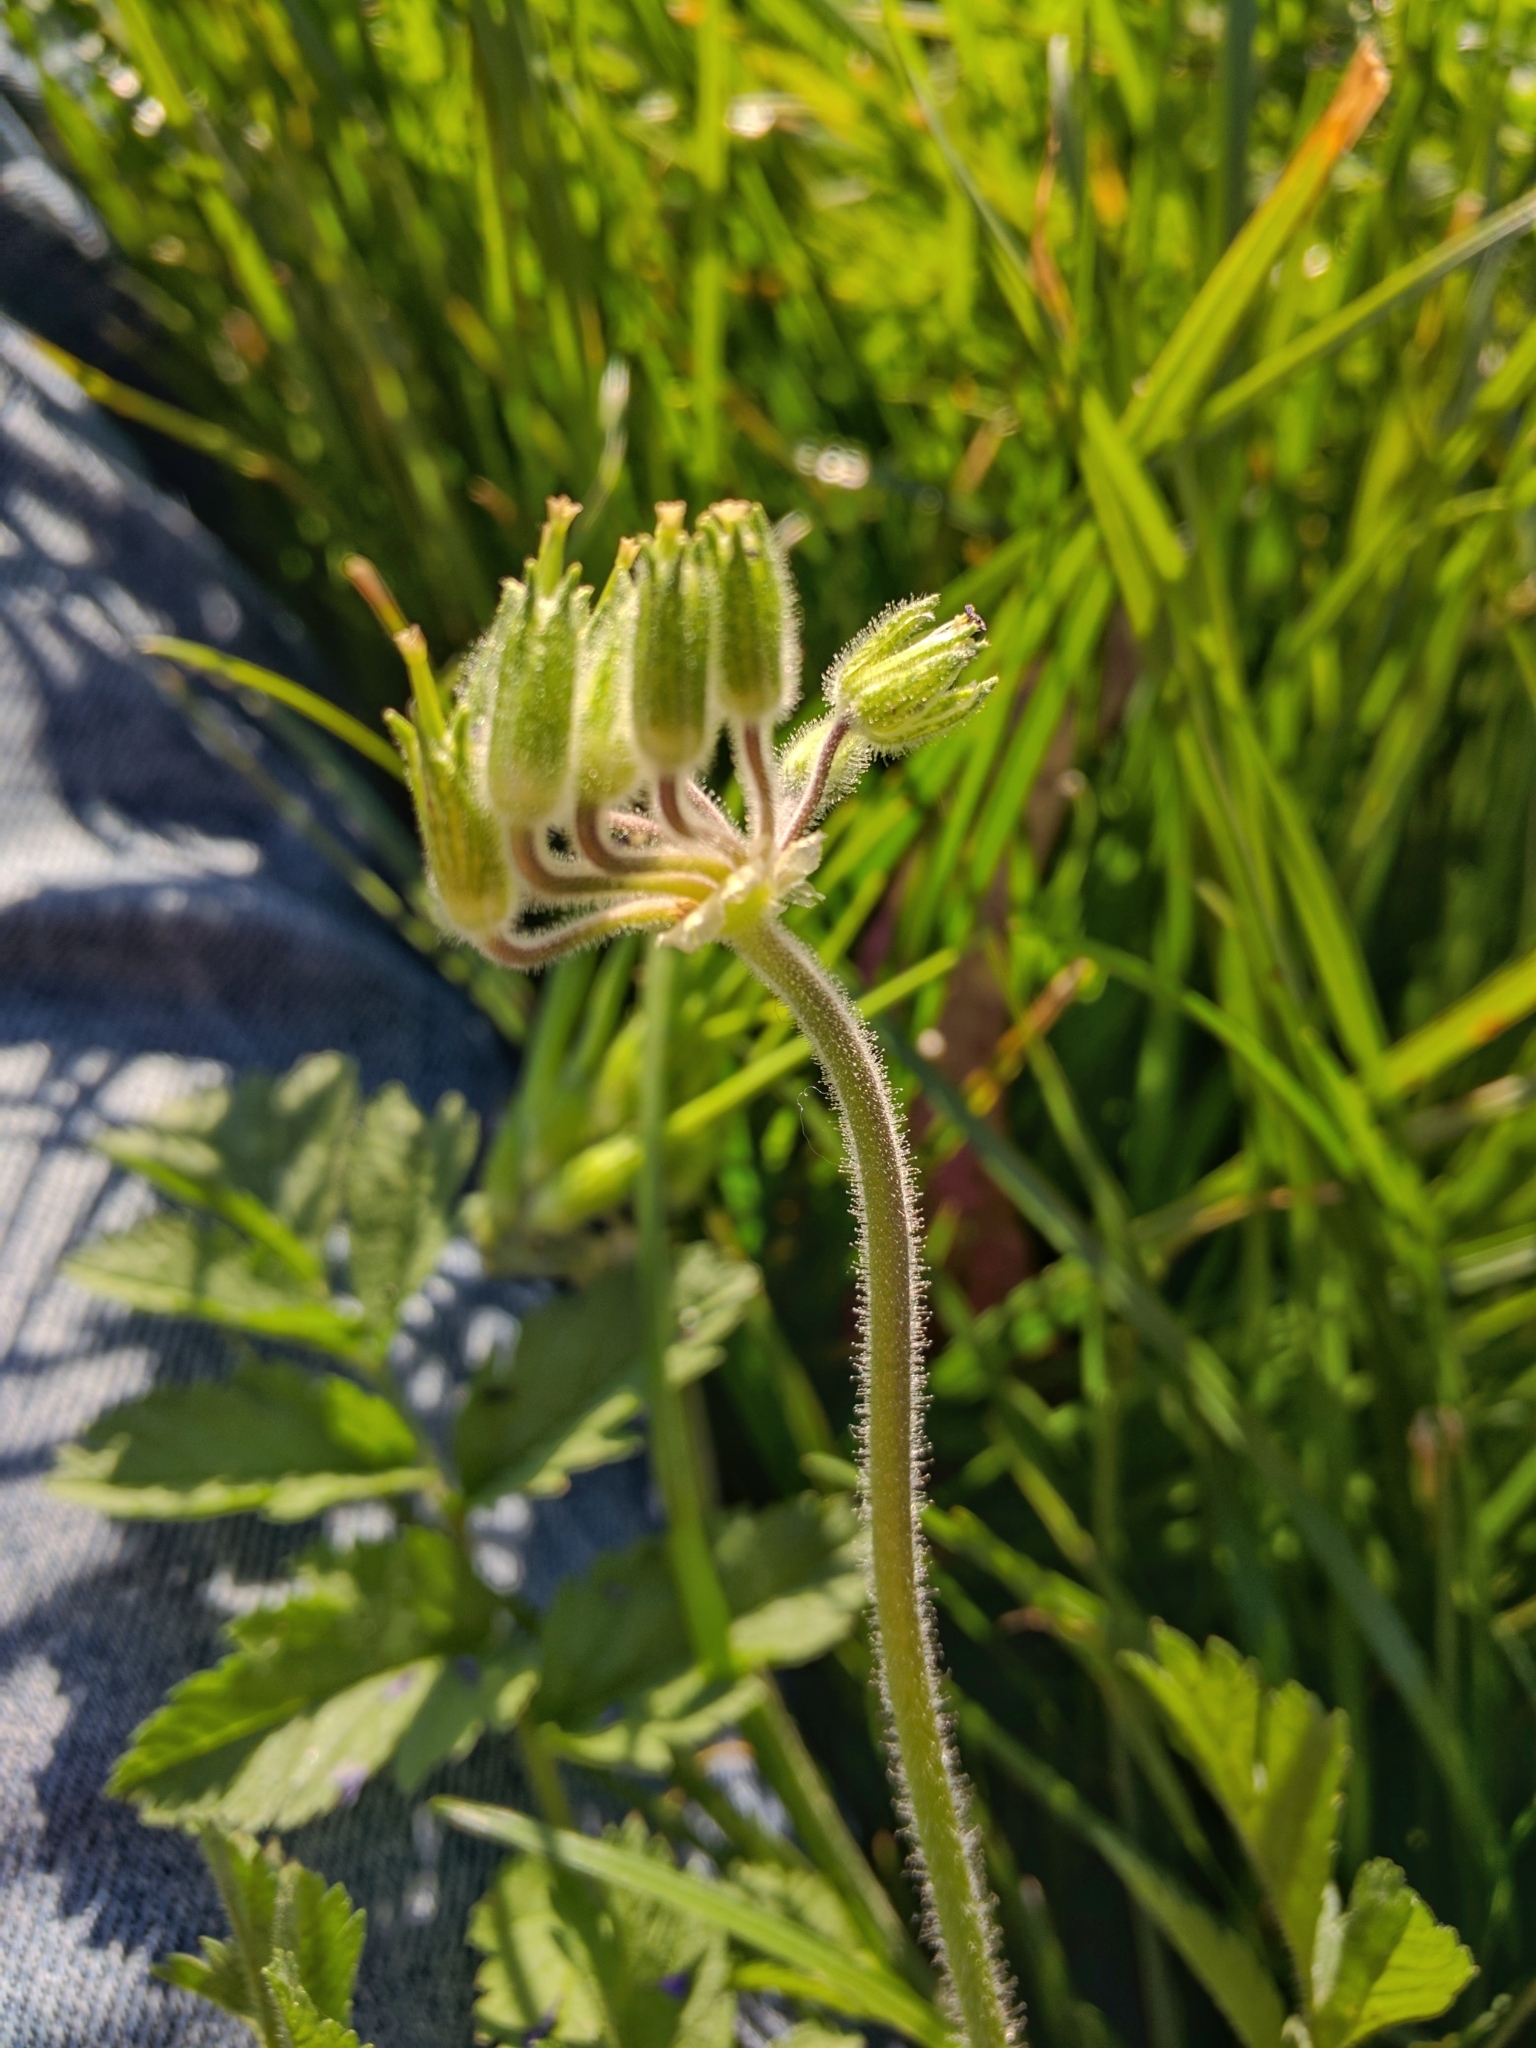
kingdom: Plantae
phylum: Tracheophyta
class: Magnoliopsida
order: Geraniales
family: Geraniaceae
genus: Erodium
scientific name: Erodium moschatum
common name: Musk stork's-bill
